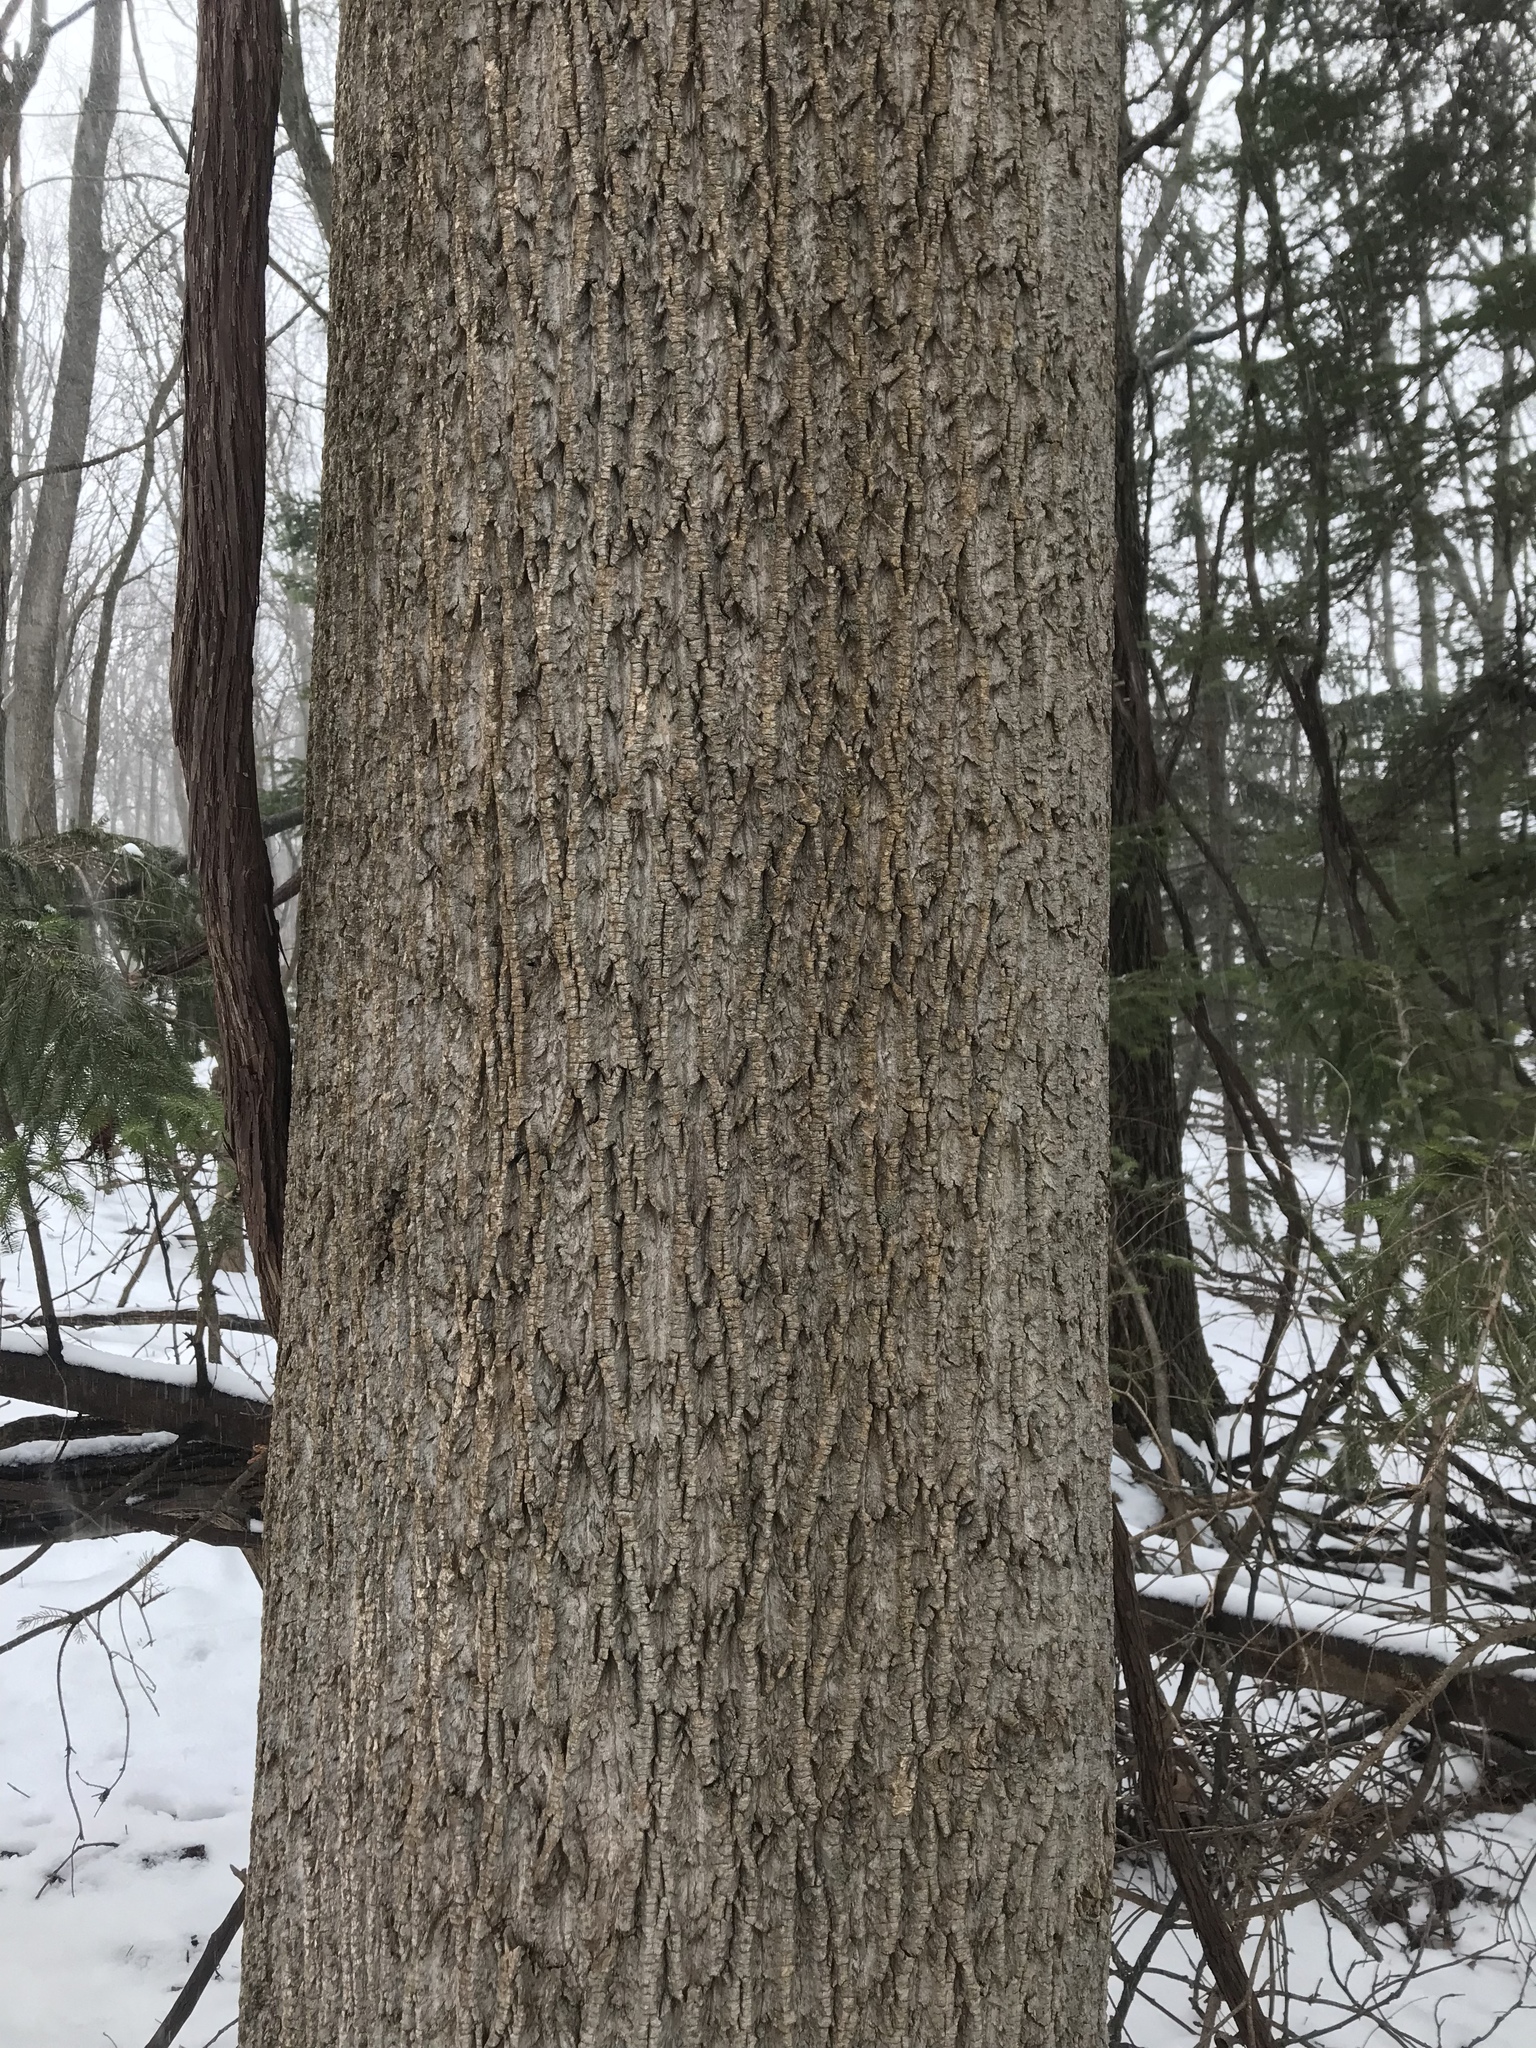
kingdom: Plantae
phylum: Tracheophyta
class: Magnoliopsida
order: Magnoliales
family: Magnoliaceae
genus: Liriodendron
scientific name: Liriodendron tulipifera
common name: Tulip tree
